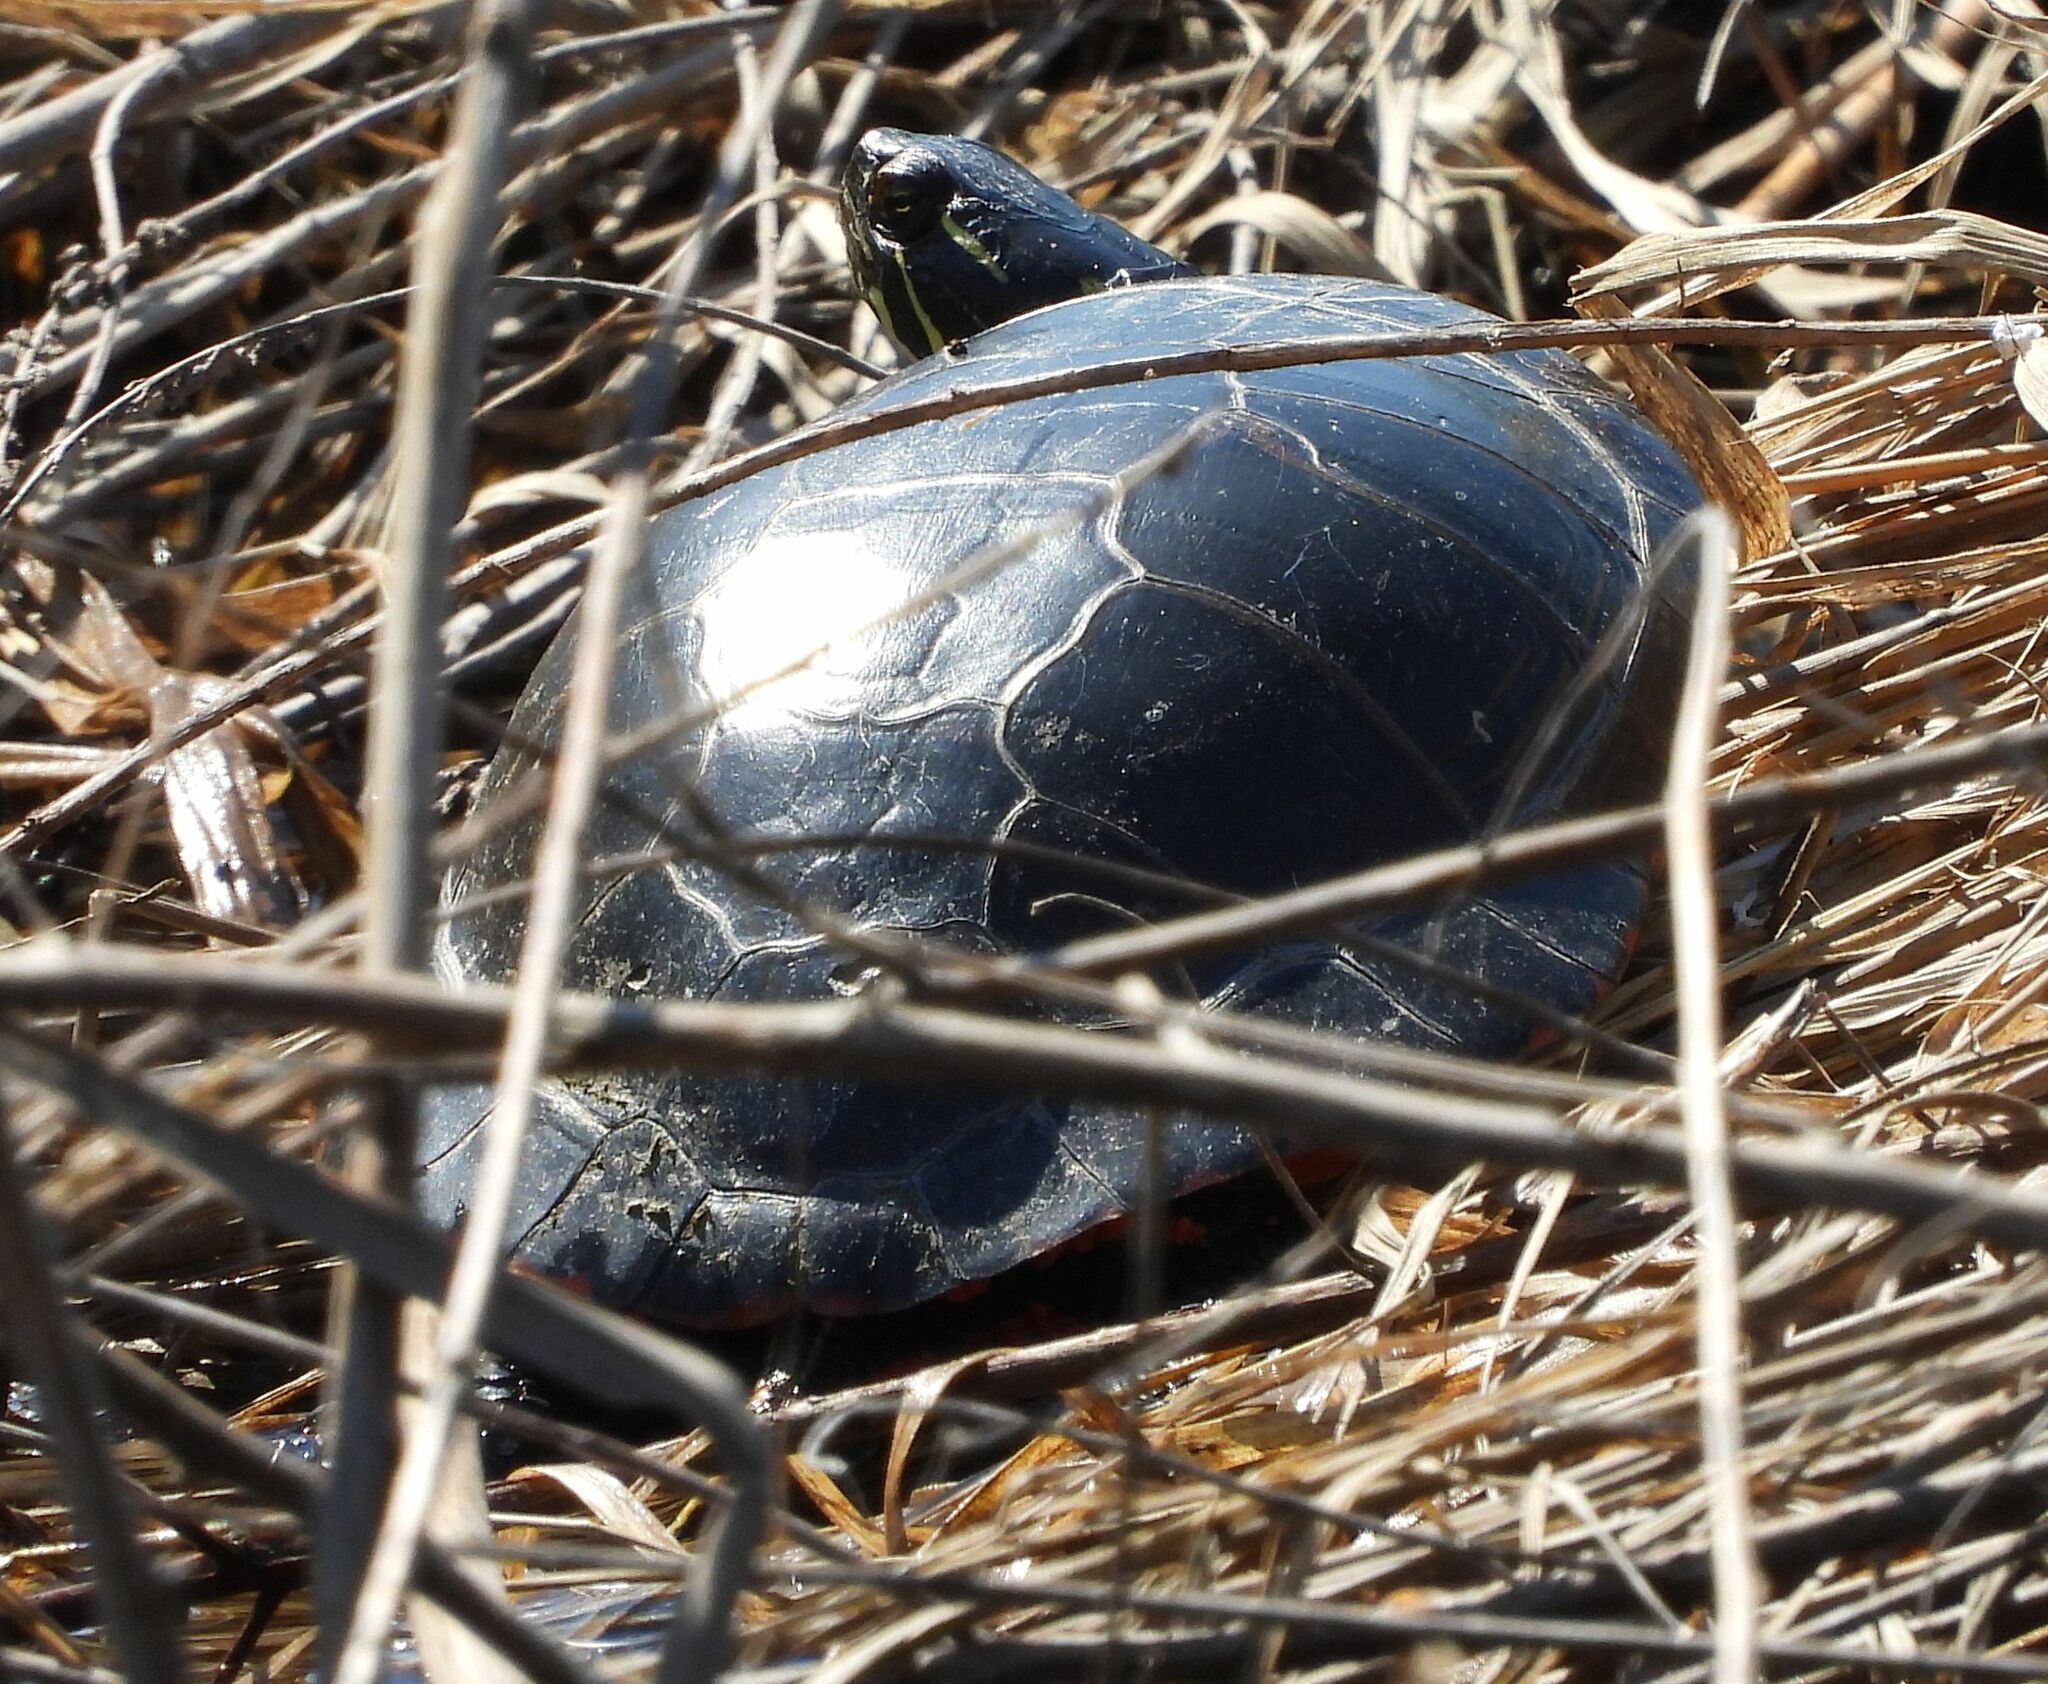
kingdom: Animalia
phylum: Chordata
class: Testudines
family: Emydidae
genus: Chrysemys
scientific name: Chrysemys picta
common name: Painted turtle
